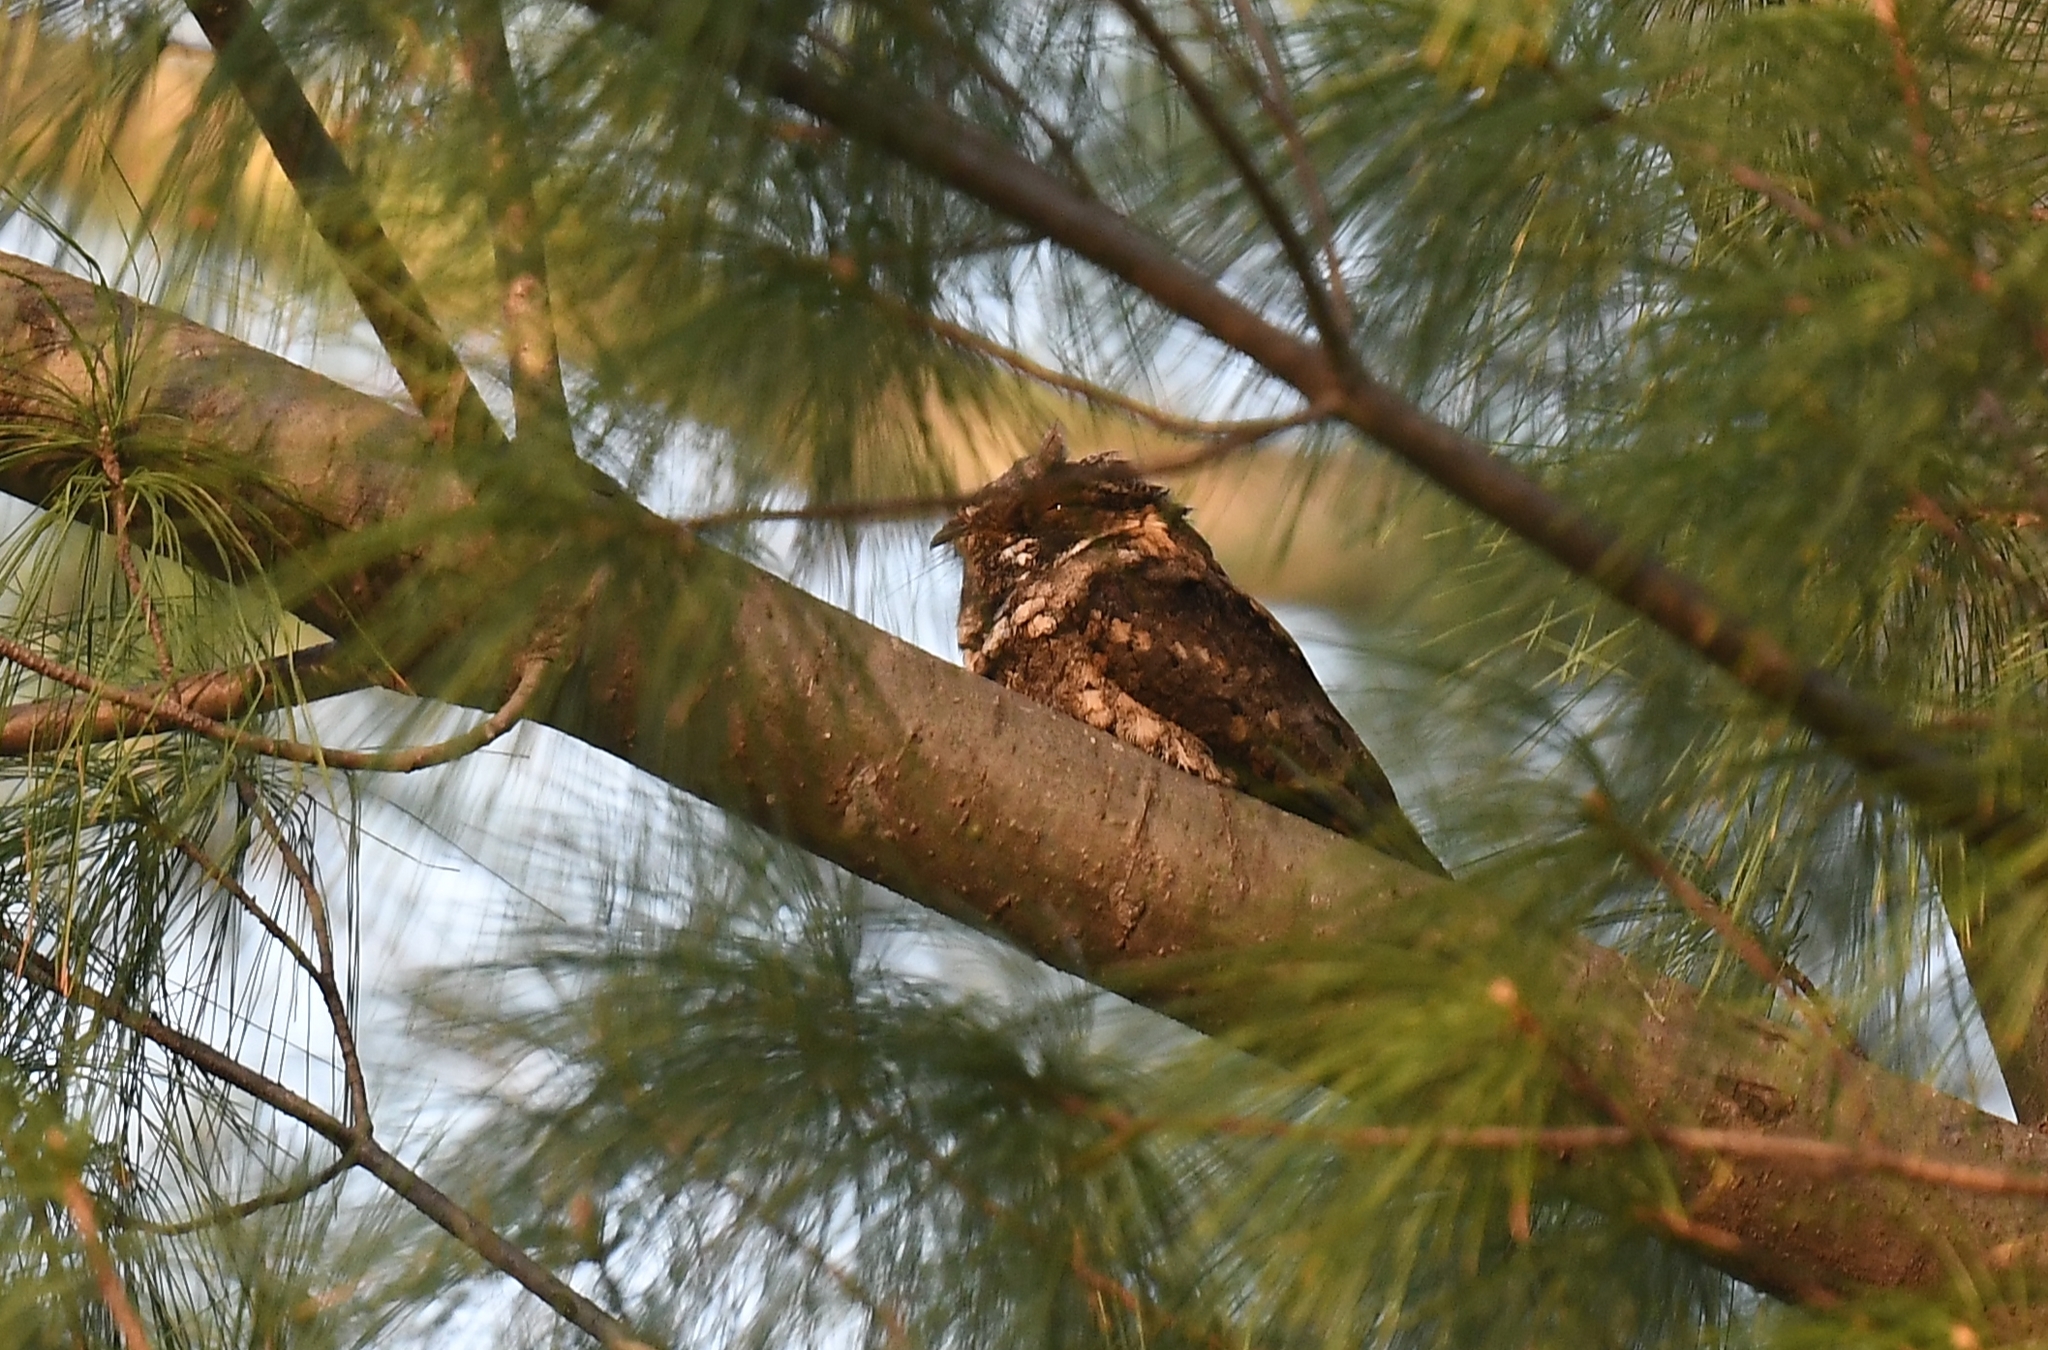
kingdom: Animalia
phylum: Chordata
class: Aves
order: Caprimulgiformes
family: Caprimulgidae
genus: Antrostomus
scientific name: Antrostomus vociferus
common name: Eastern whip-poor-will
